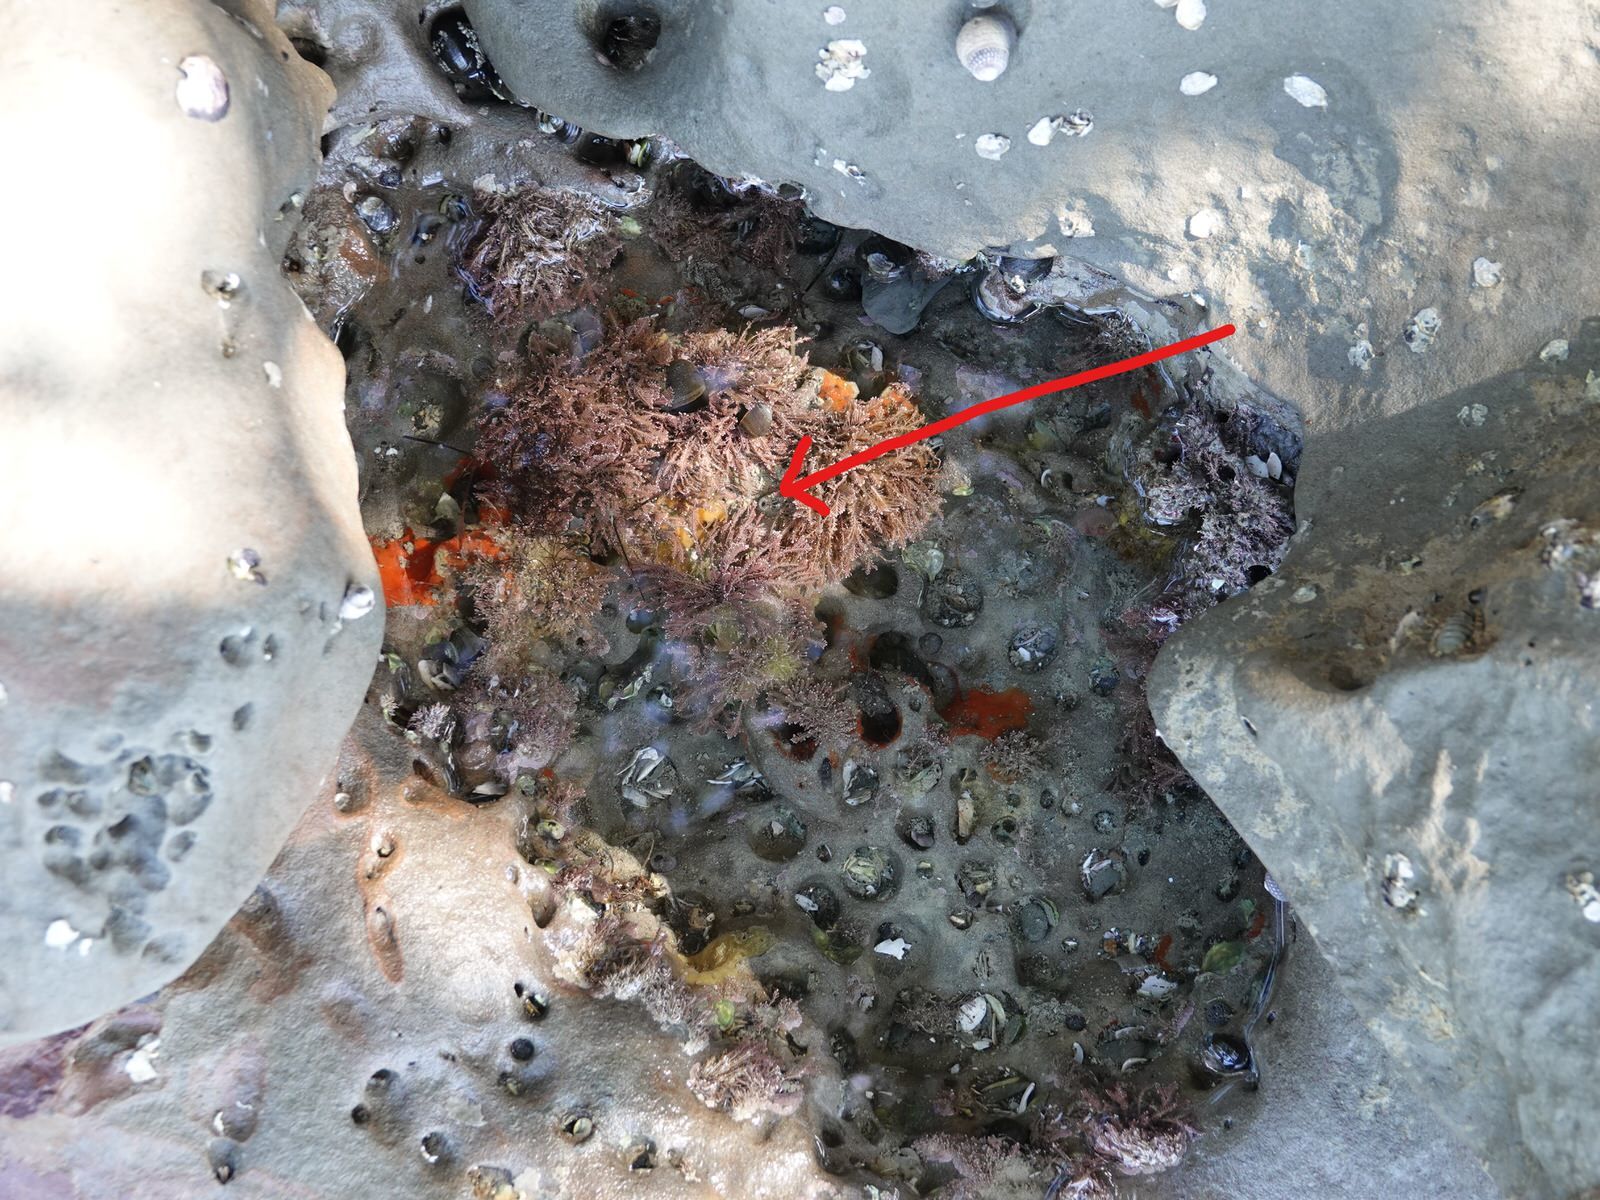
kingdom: Animalia
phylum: Mollusca
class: Bivalvia
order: Myida
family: Pholadidae
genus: Barnea
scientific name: Barnea similis
